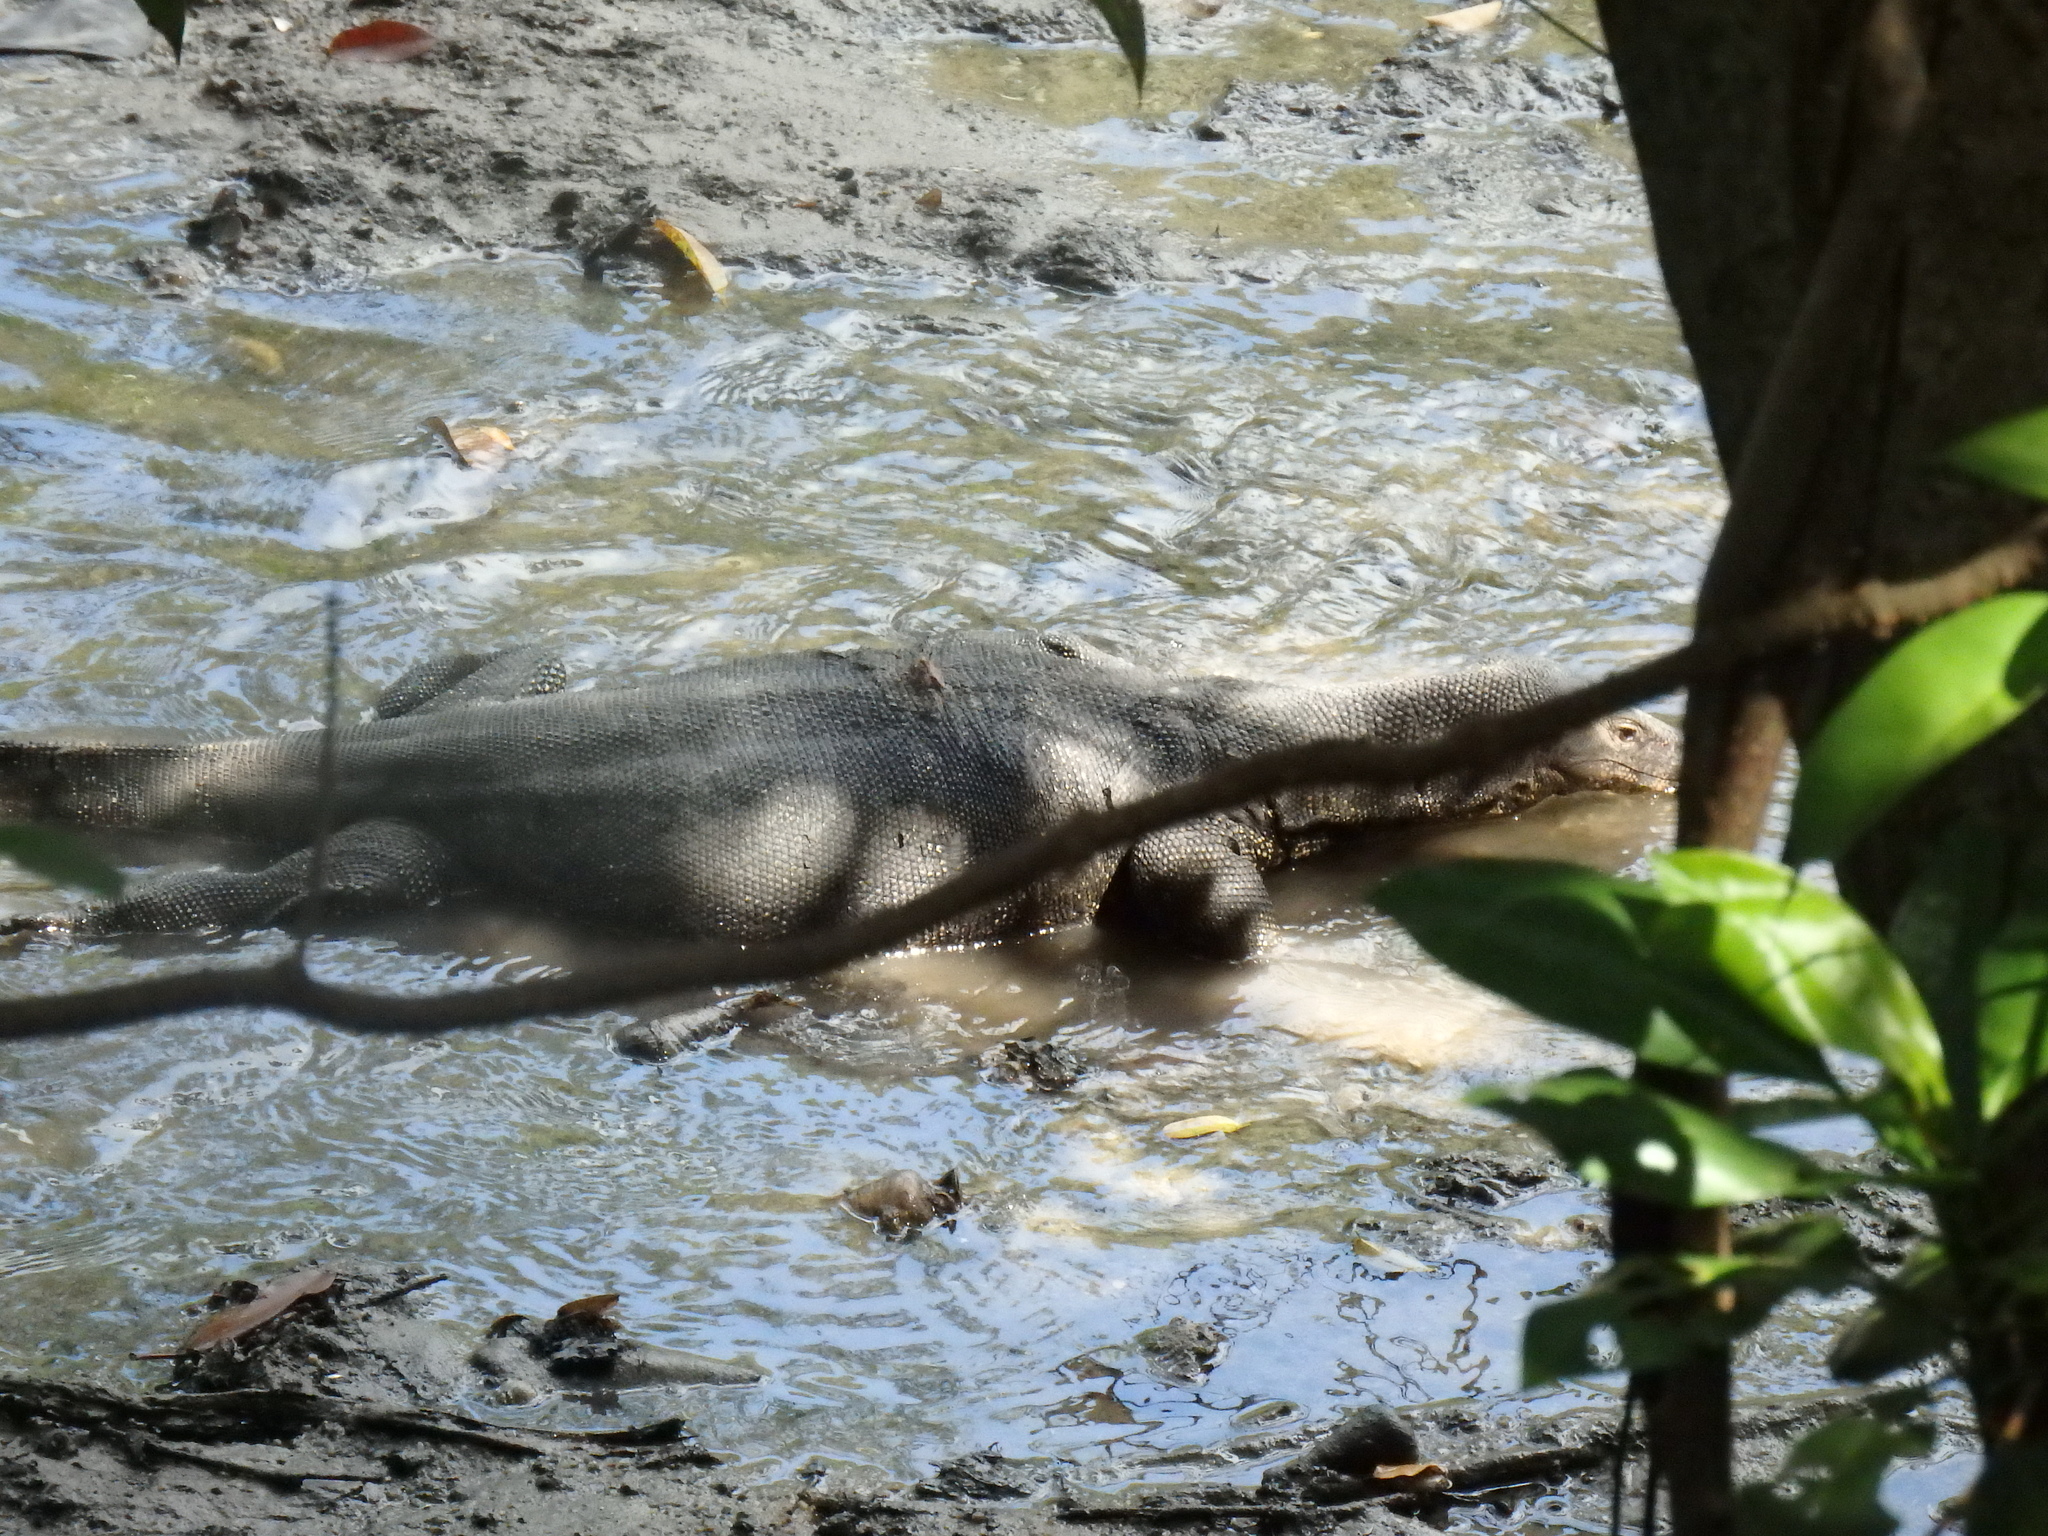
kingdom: Animalia
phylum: Chordata
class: Squamata
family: Varanidae
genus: Varanus
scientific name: Varanus salvator
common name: Common water monitor
